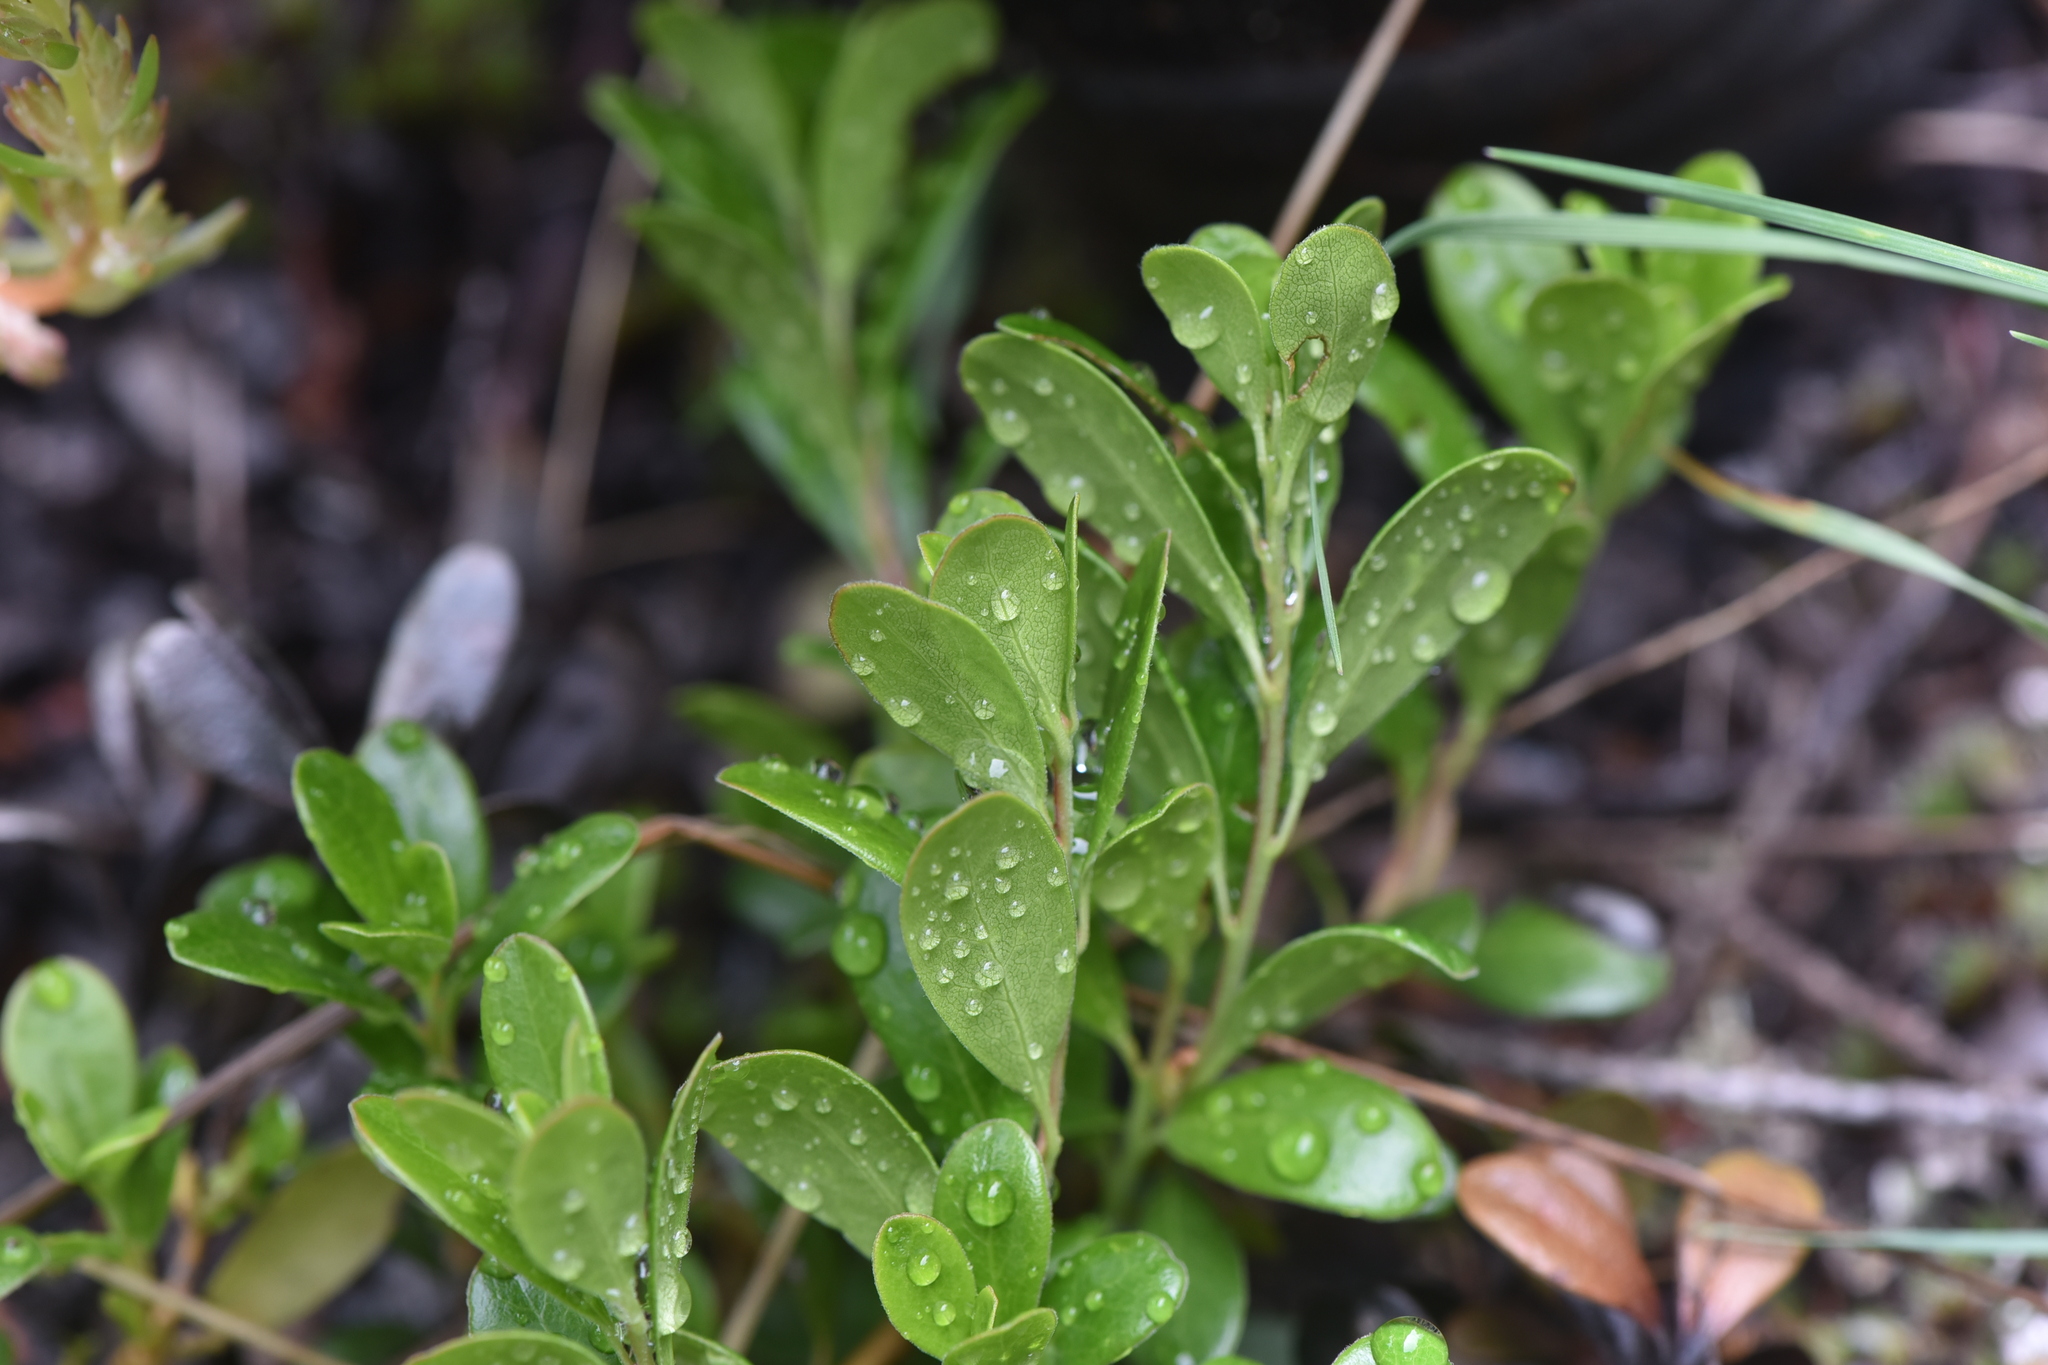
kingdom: Plantae
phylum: Tracheophyta
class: Magnoliopsida
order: Ericales
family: Ericaceae
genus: Arctostaphylos
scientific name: Arctostaphylos uva-ursi
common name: Bearberry
